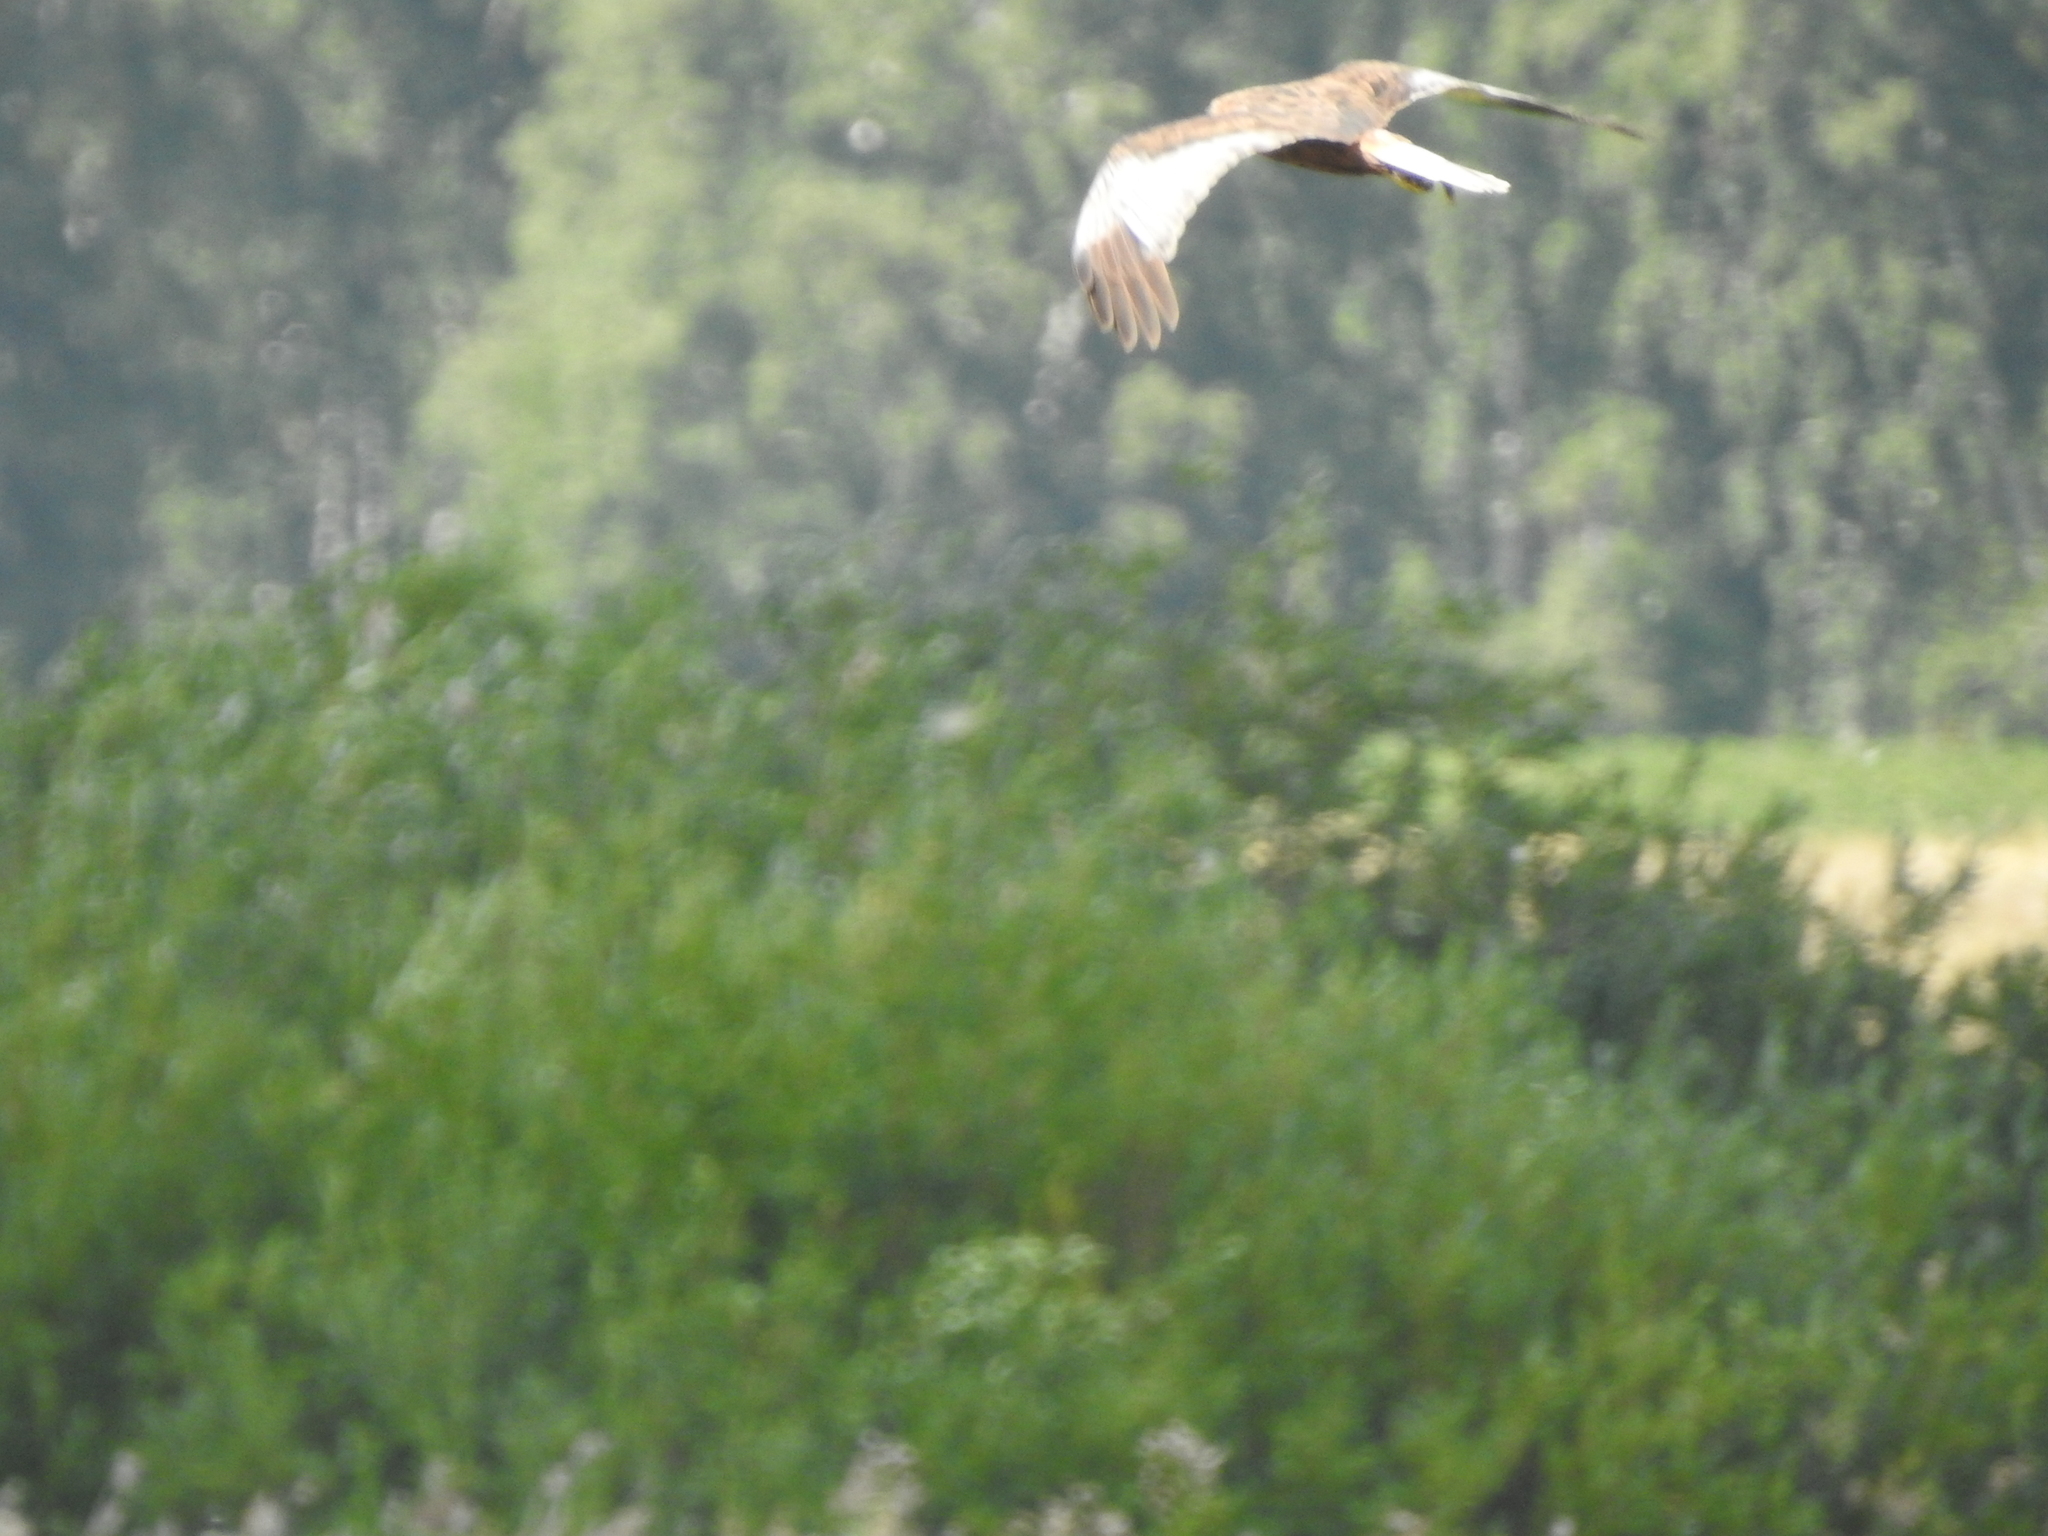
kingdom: Animalia
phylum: Chordata
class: Aves
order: Accipitriformes
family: Accipitridae
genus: Circus
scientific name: Circus aeruginosus
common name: Western marsh harrier
